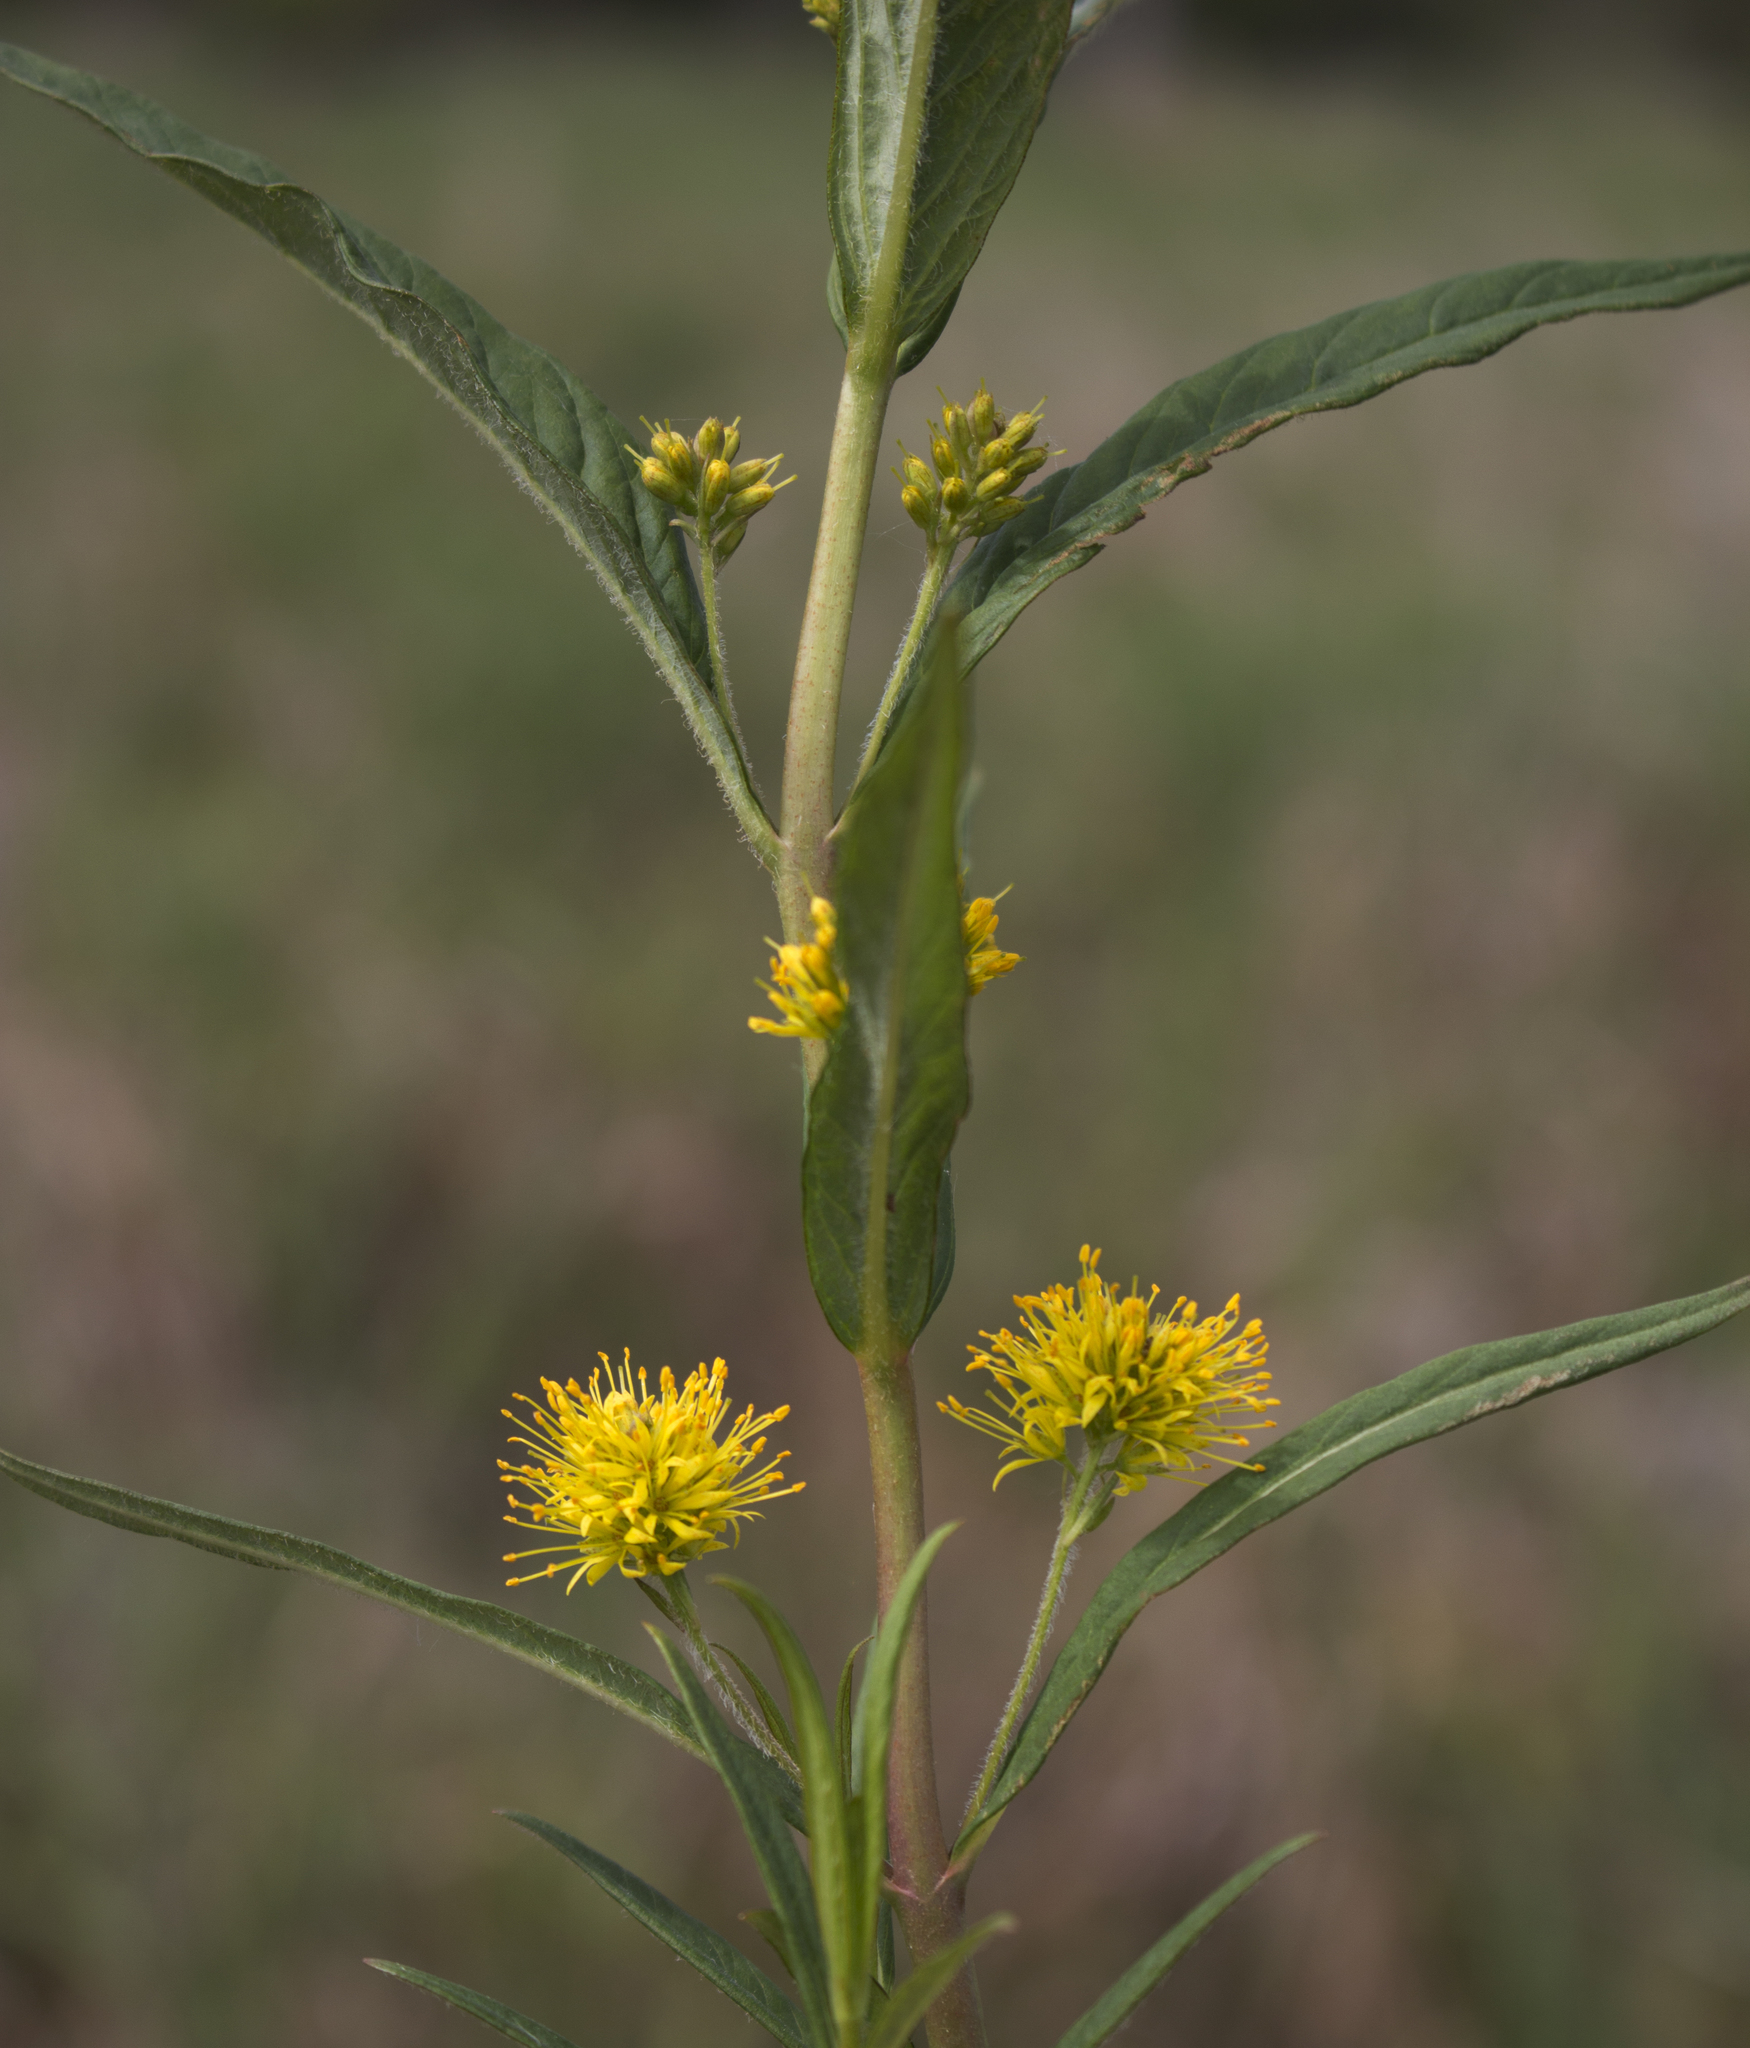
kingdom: Plantae
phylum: Tracheophyta
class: Magnoliopsida
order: Ericales
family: Primulaceae
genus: Lysimachia
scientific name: Lysimachia thyrsiflora
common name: Tufted loosestrife
